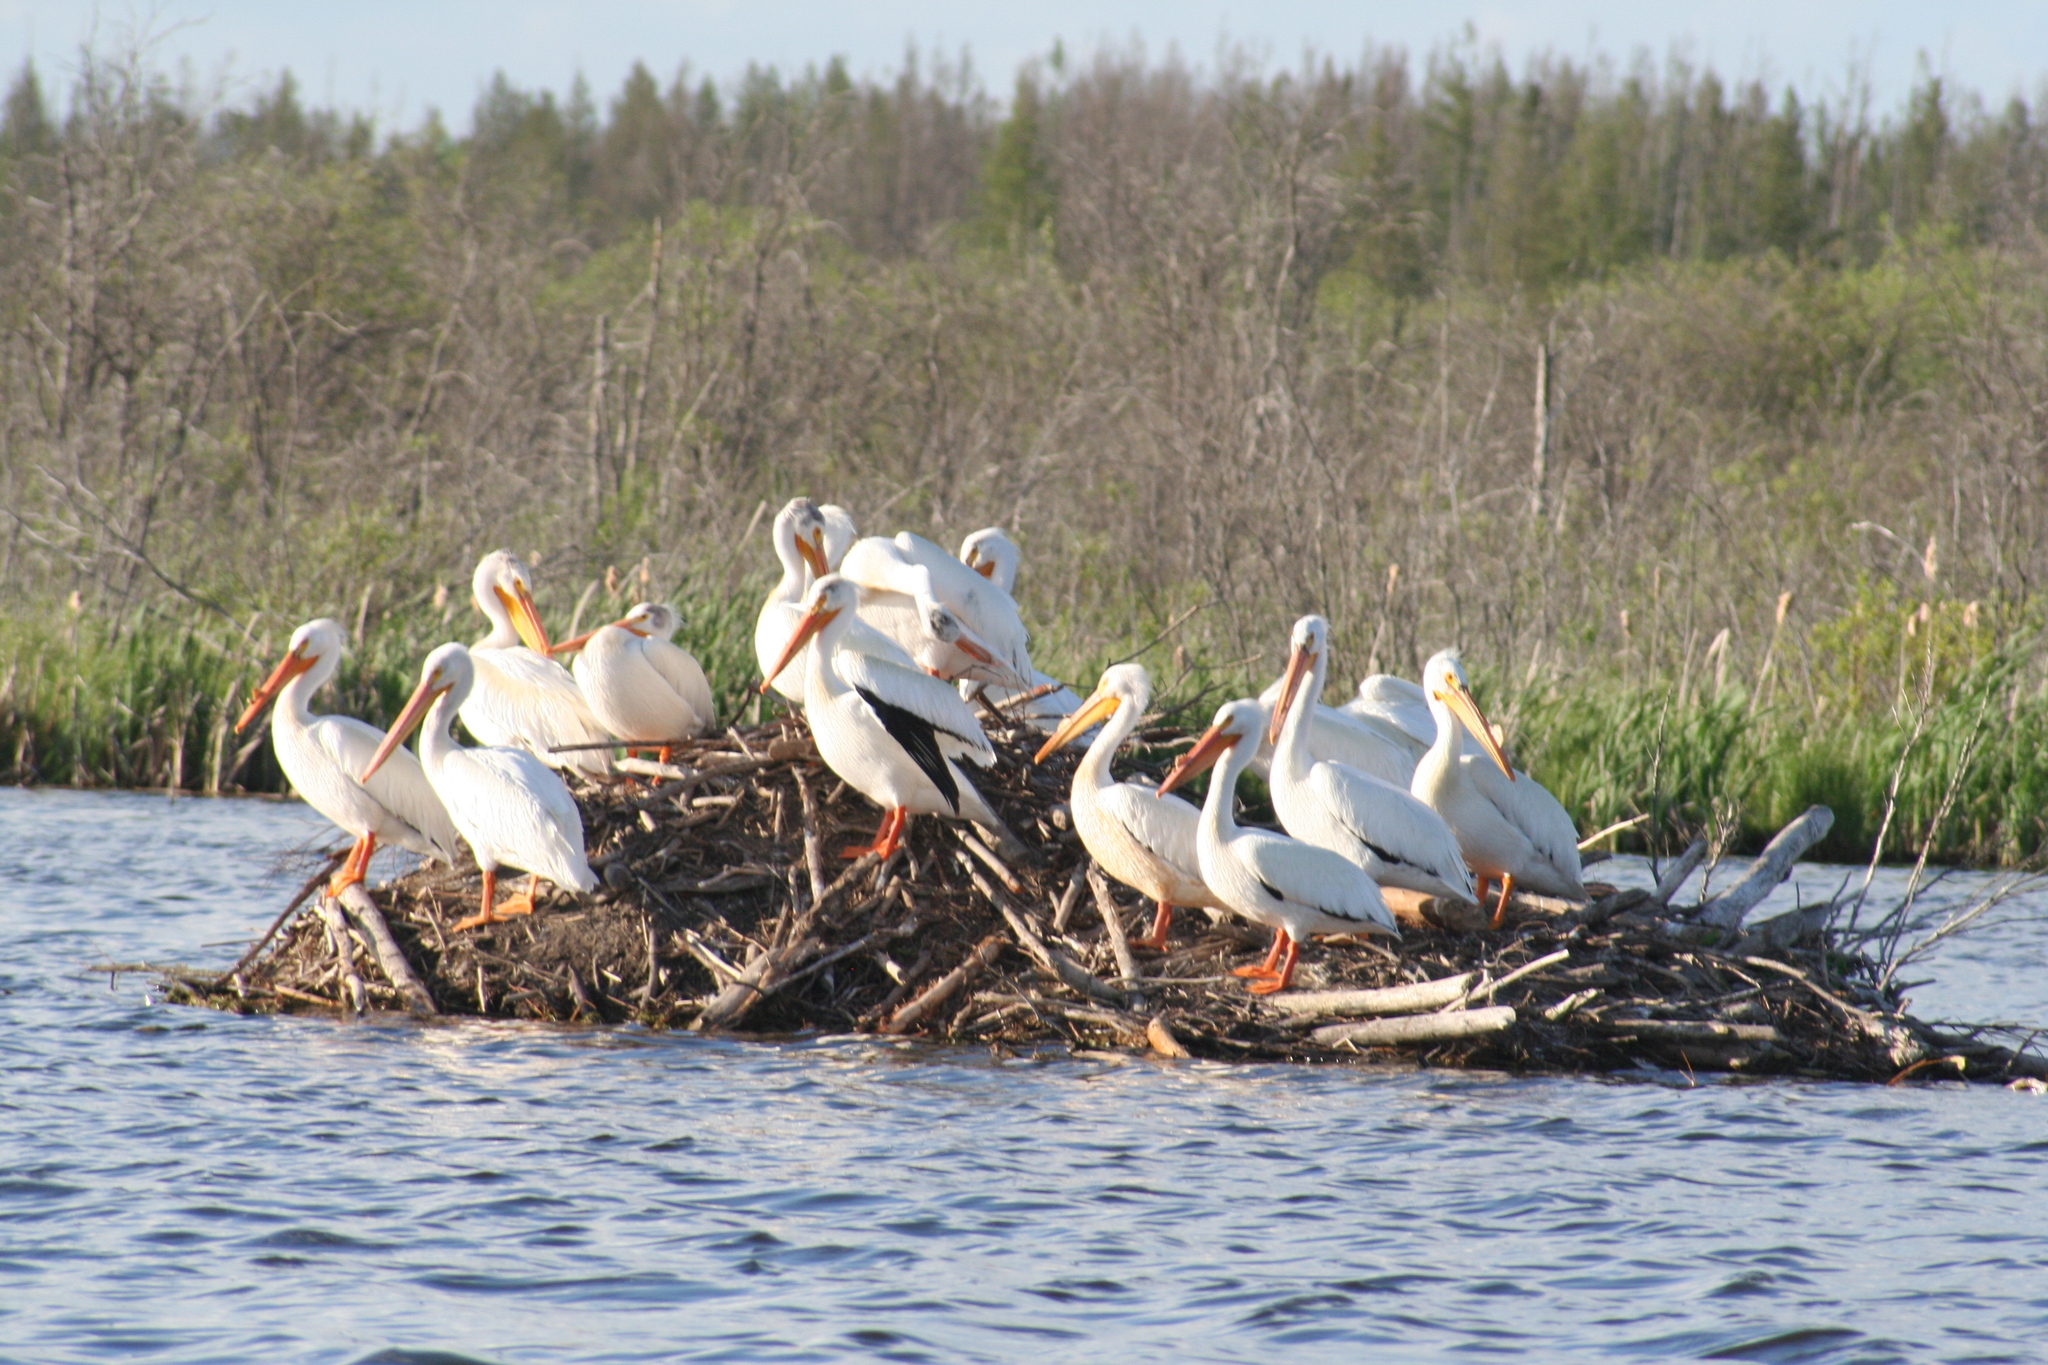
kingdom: Animalia
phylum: Chordata
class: Aves
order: Pelecaniformes
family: Pelecanidae
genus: Pelecanus
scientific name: Pelecanus erythrorhynchos
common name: American white pelican
